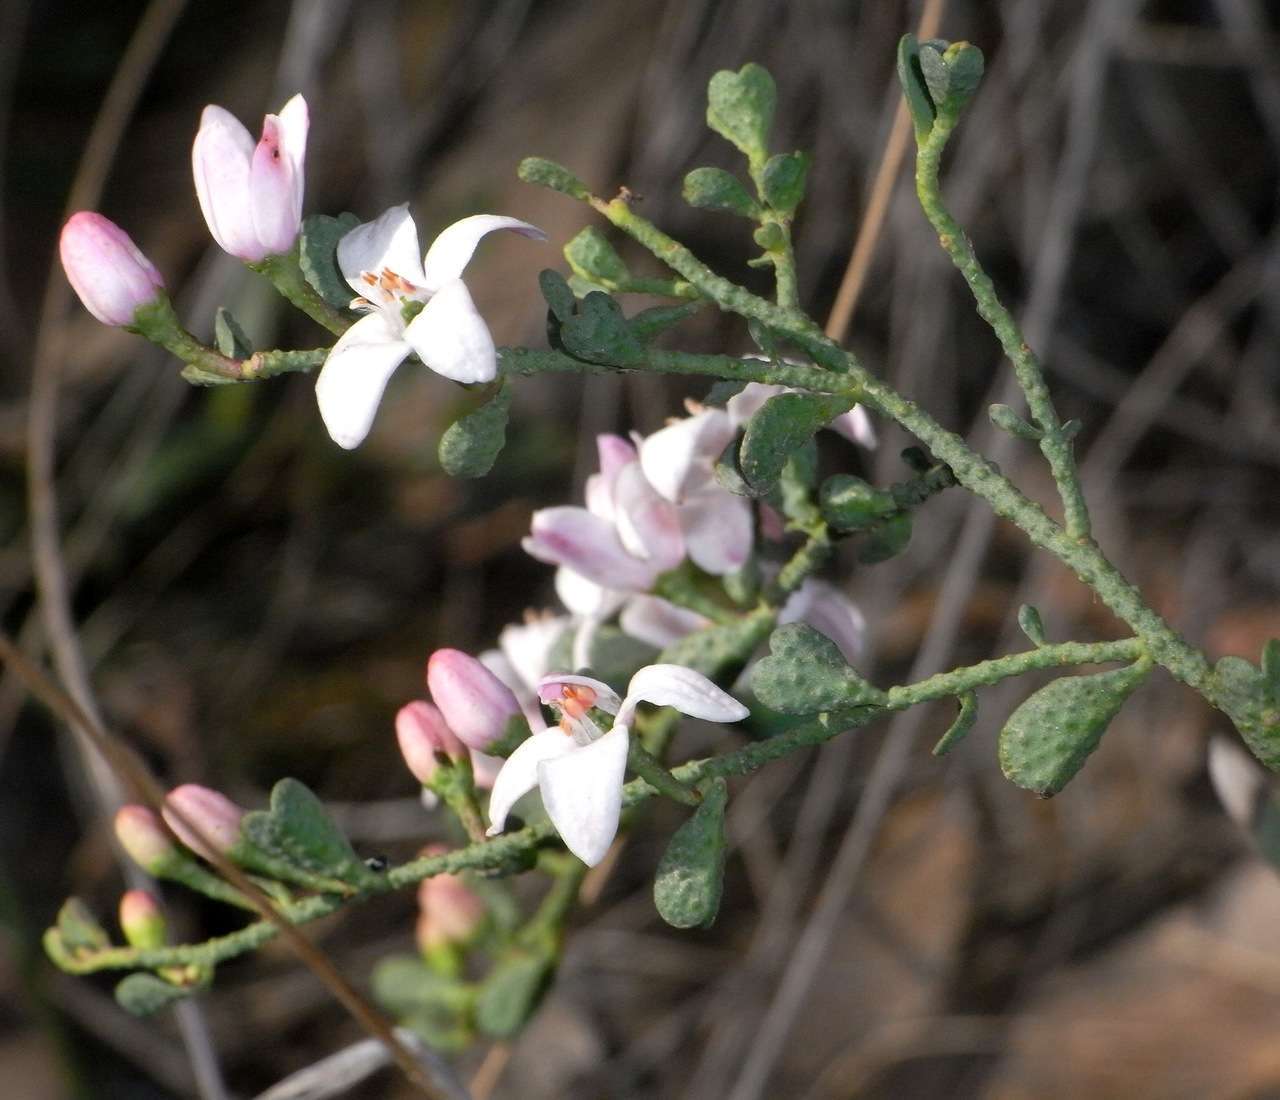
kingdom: Plantae
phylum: Tracheophyta
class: Magnoliopsida
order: Sapindales
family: Rutaceae
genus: Philotheca
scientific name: Philotheca verrucosa
